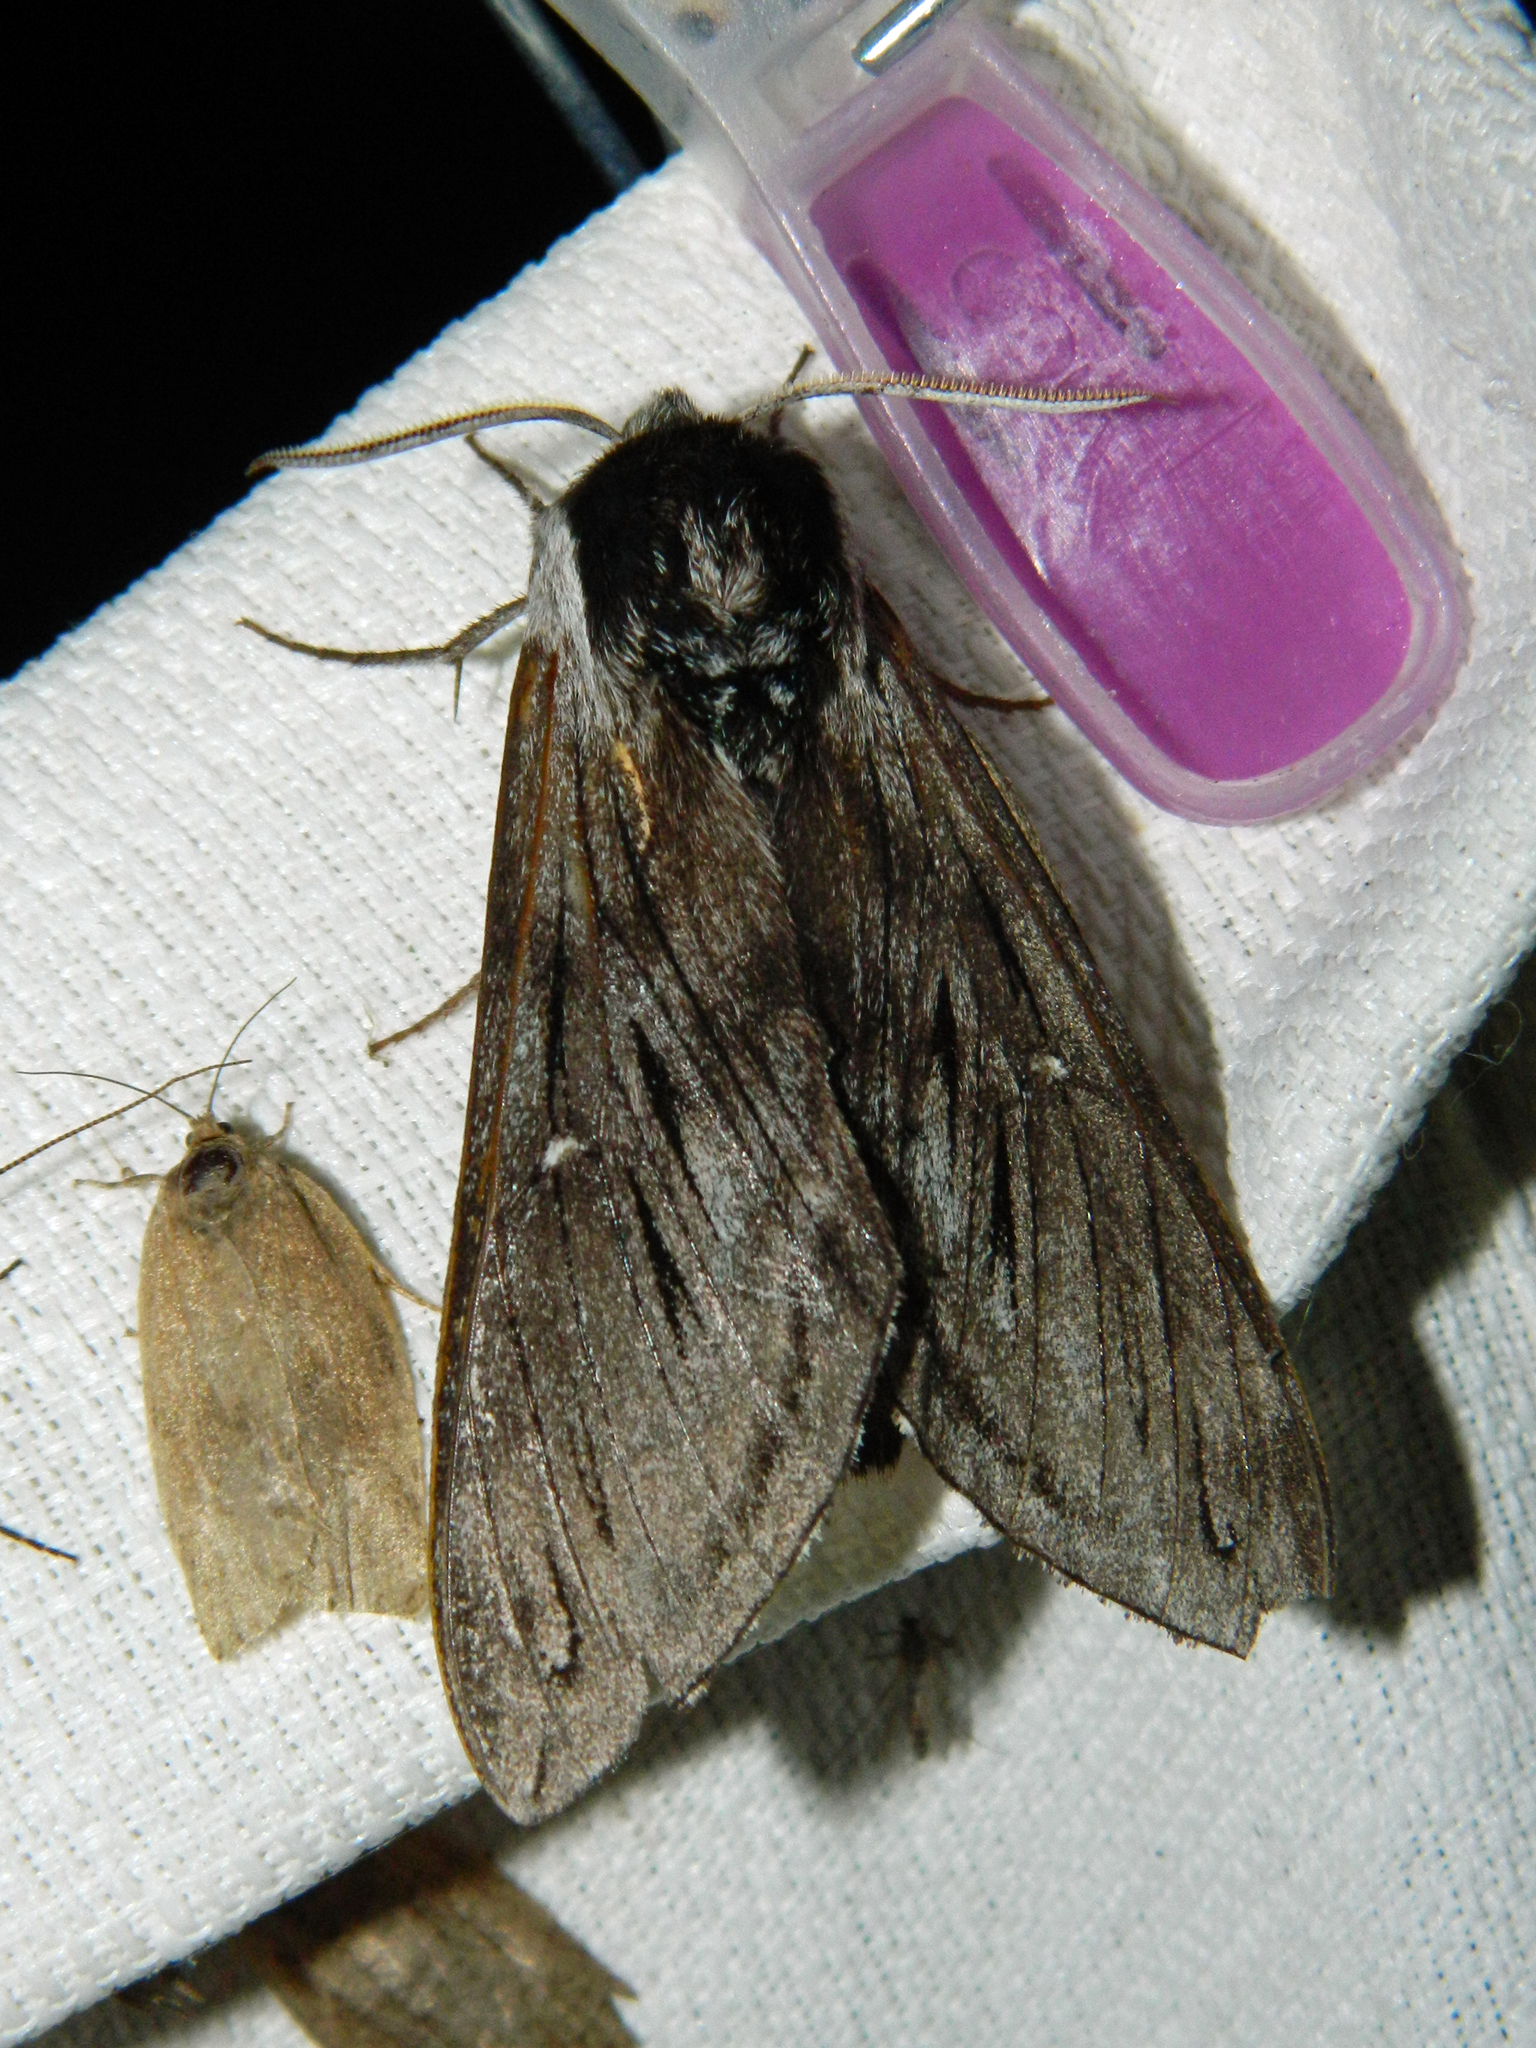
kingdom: Animalia
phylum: Arthropoda
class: Insecta
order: Lepidoptera
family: Sphingidae
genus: Sphinx
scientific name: Sphinx poecila
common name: Northern apple sphinx
